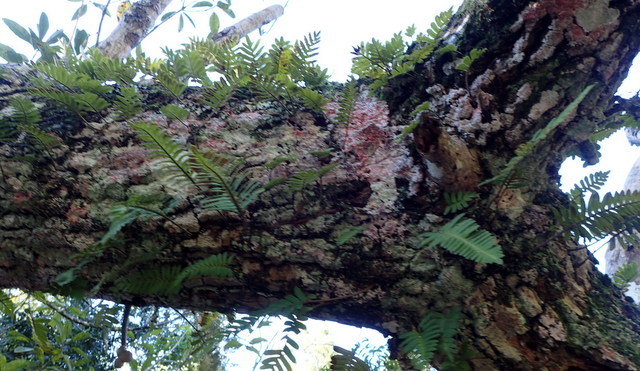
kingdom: Plantae
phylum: Tracheophyta
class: Polypodiopsida
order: Polypodiales
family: Polypodiaceae
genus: Pleopeltis
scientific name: Pleopeltis michauxiana
